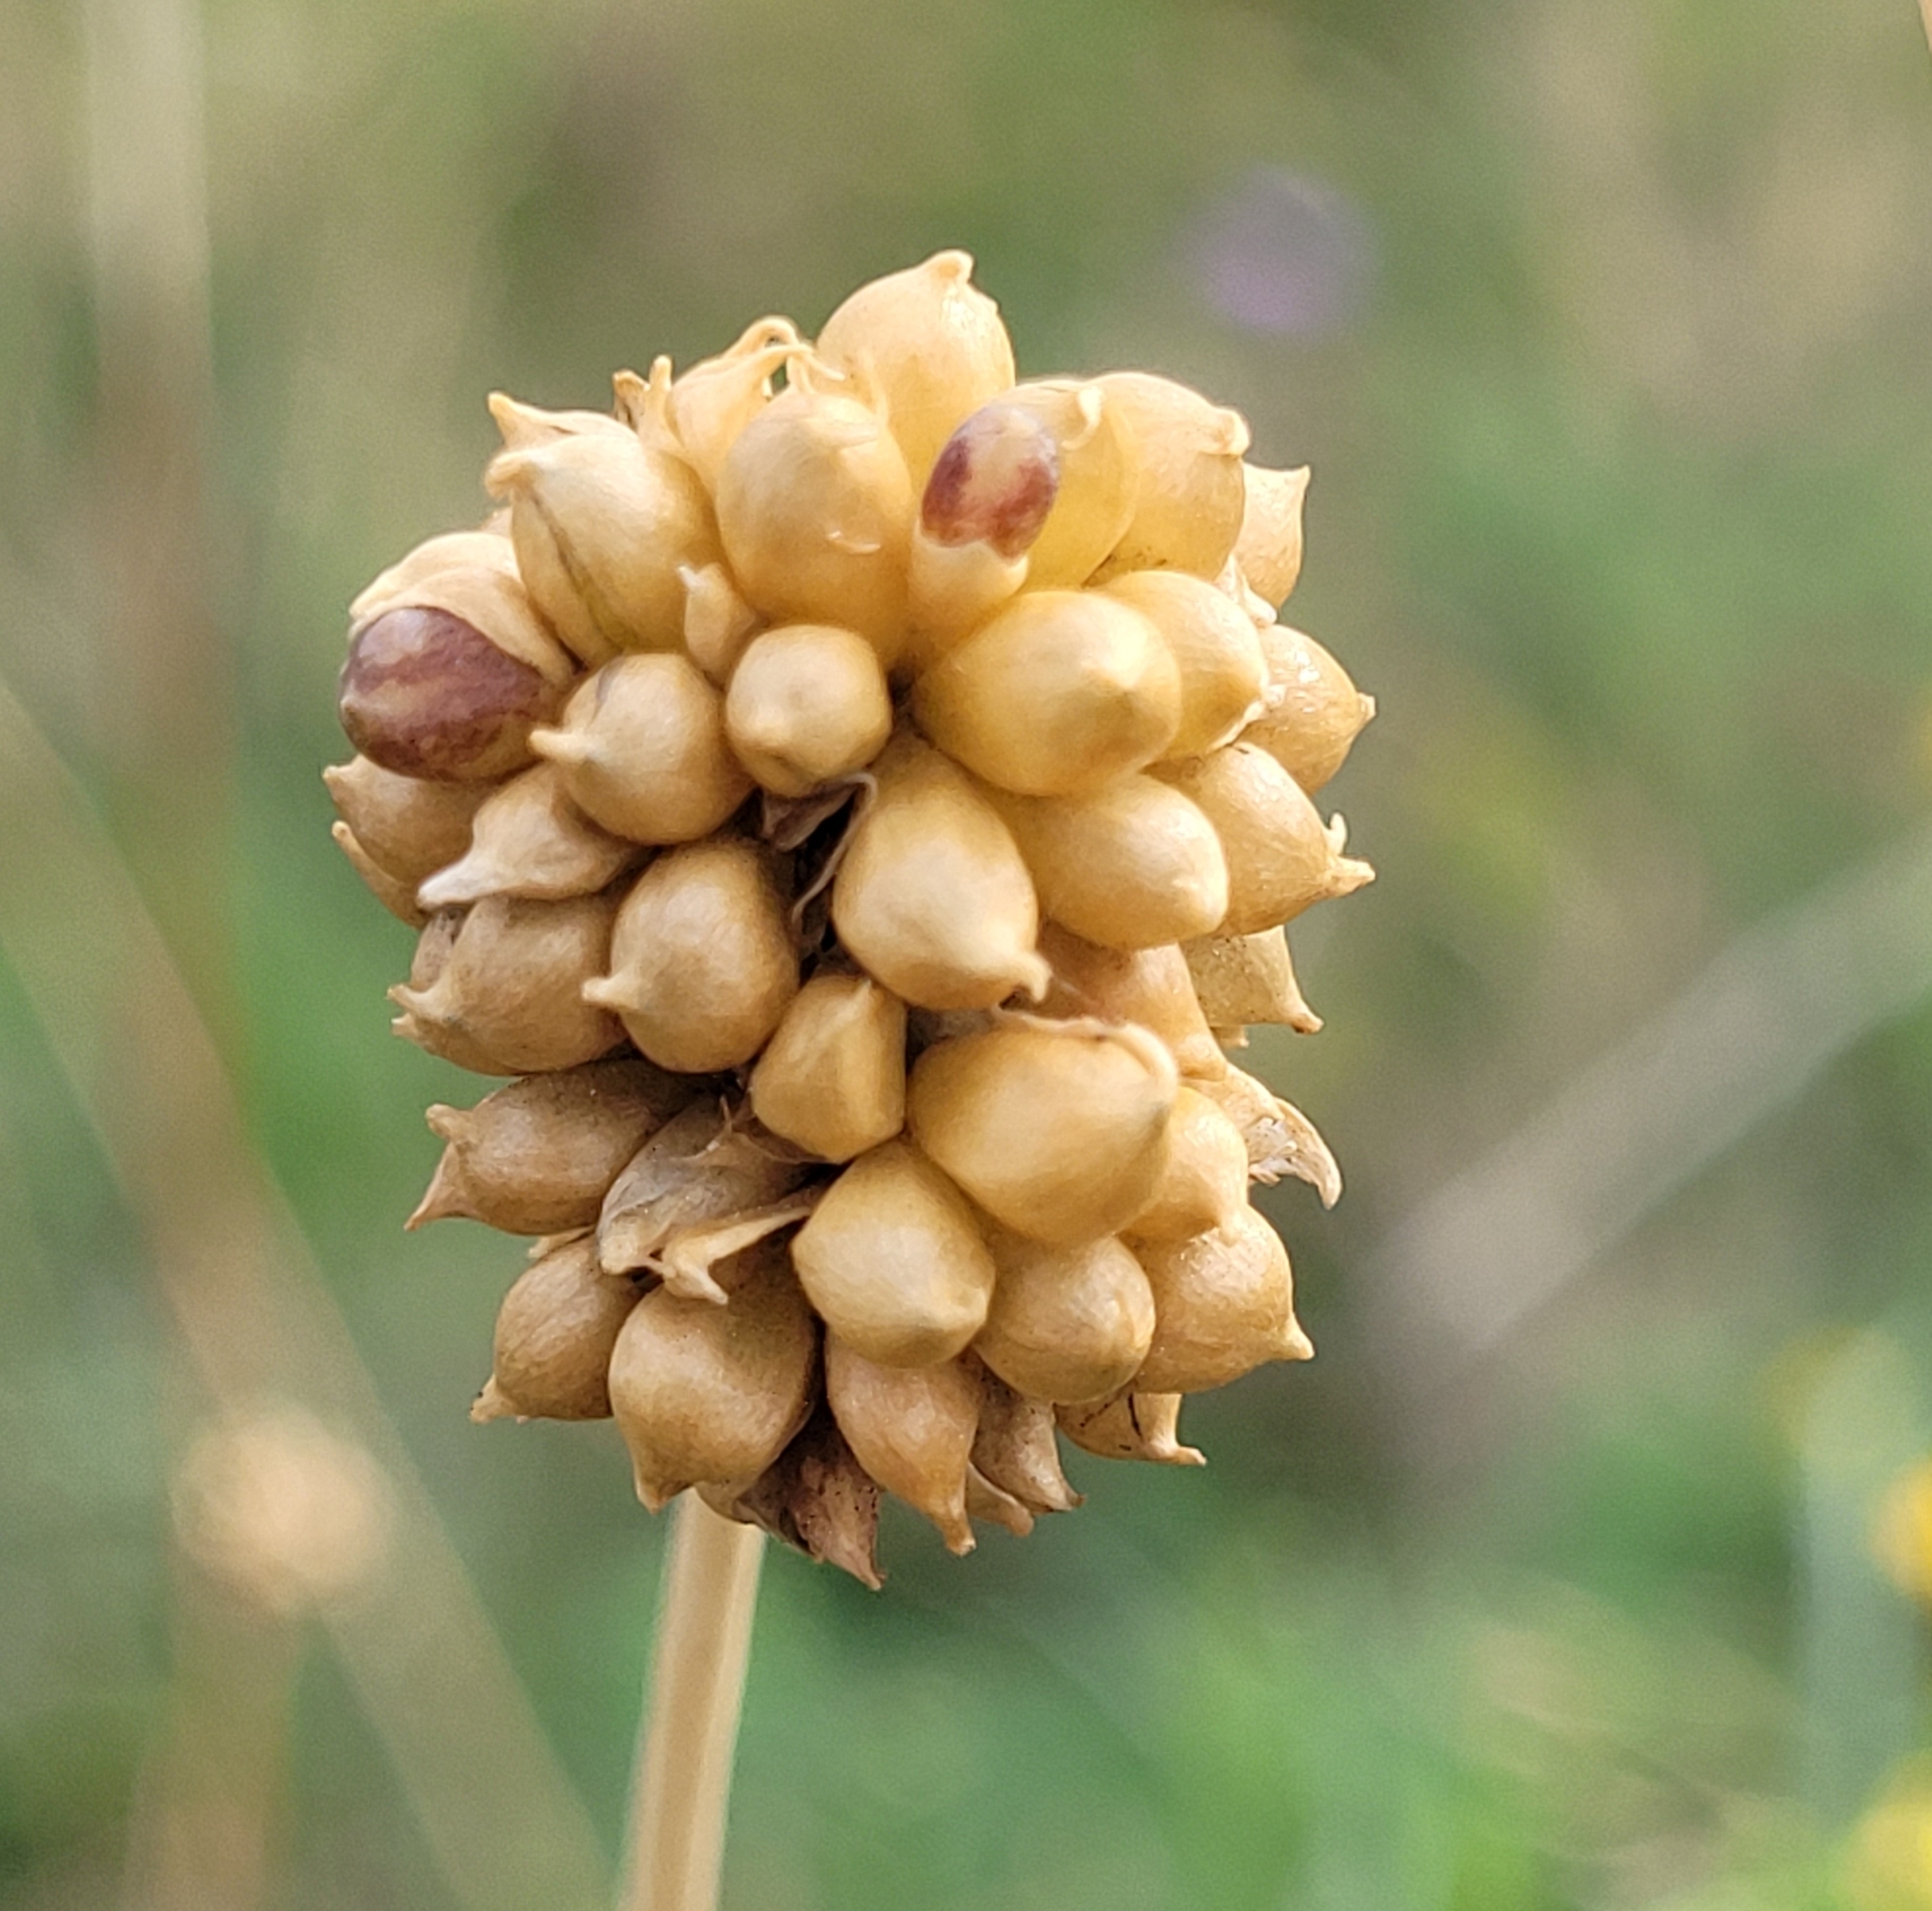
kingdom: Plantae
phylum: Tracheophyta
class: Liliopsida
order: Asparagales
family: Amaryllidaceae
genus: Allium
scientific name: Allium vineale
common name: Crow garlic
